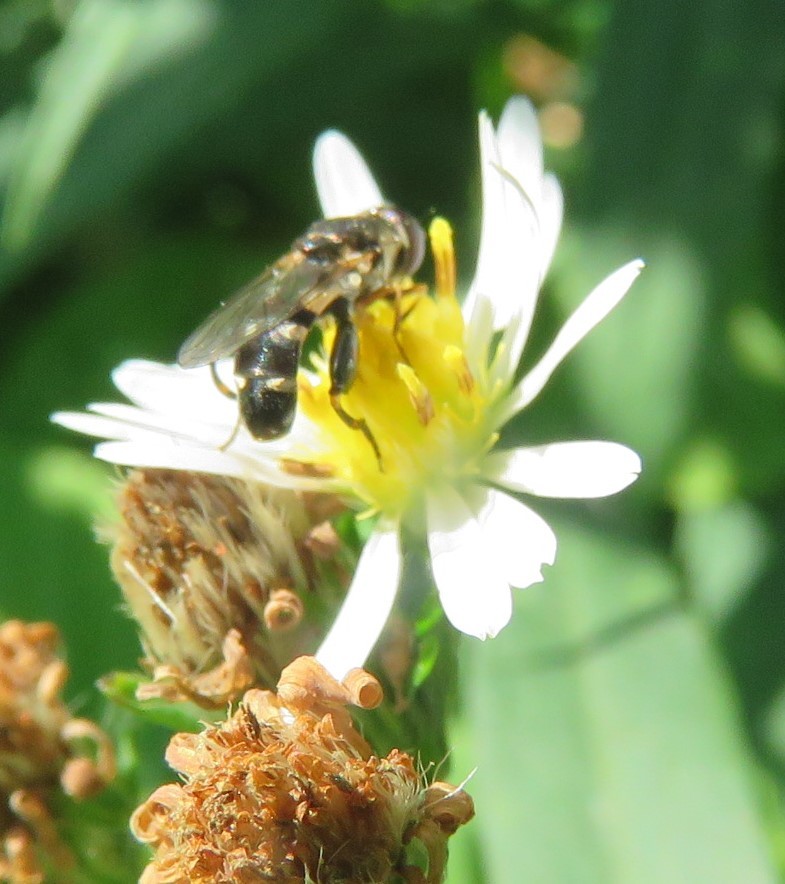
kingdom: Animalia
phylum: Arthropoda
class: Insecta
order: Diptera
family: Syrphidae
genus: Syritta
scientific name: Syritta pipiens
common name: Hover fly
